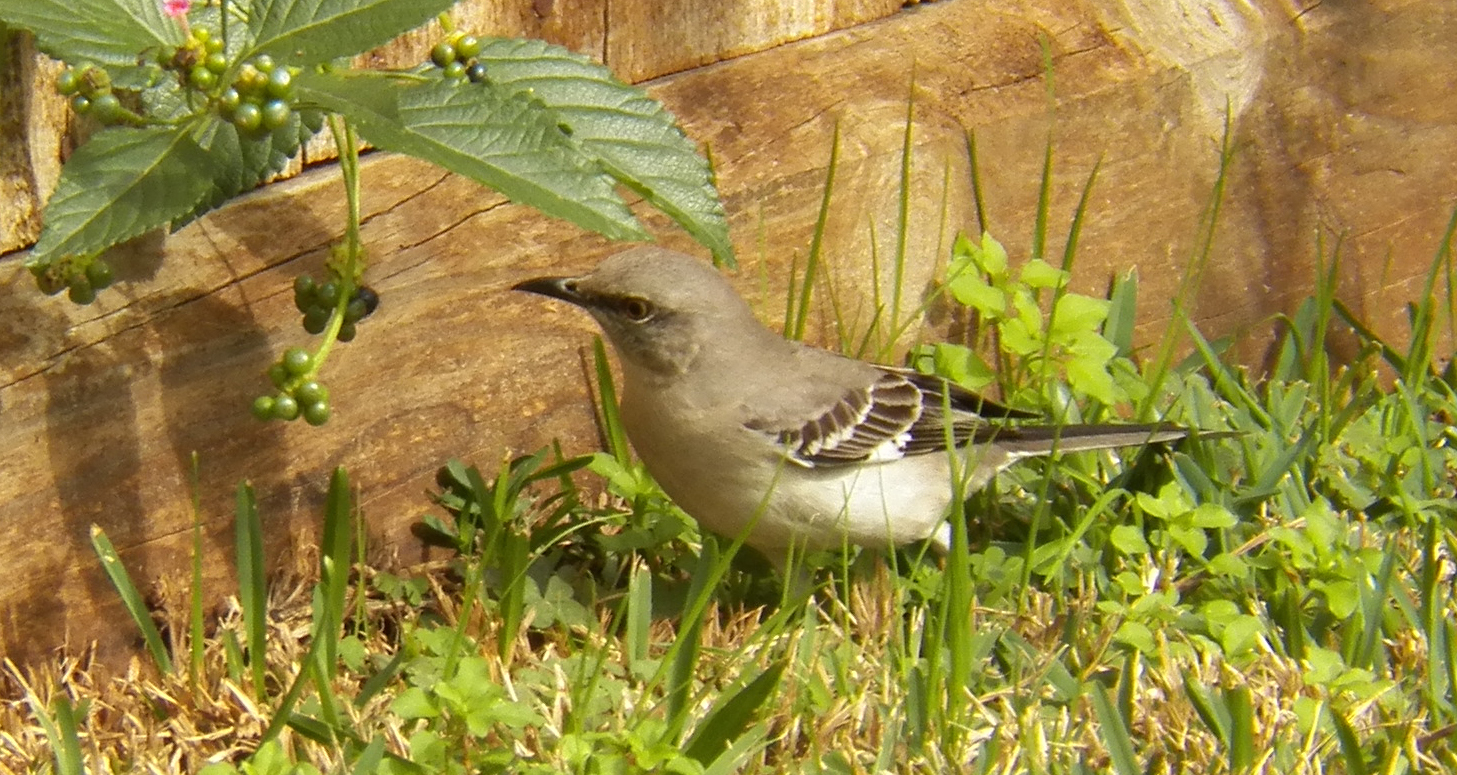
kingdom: Animalia
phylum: Chordata
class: Aves
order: Passeriformes
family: Mimidae
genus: Mimus
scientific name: Mimus polyglottos
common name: Northern mockingbird
